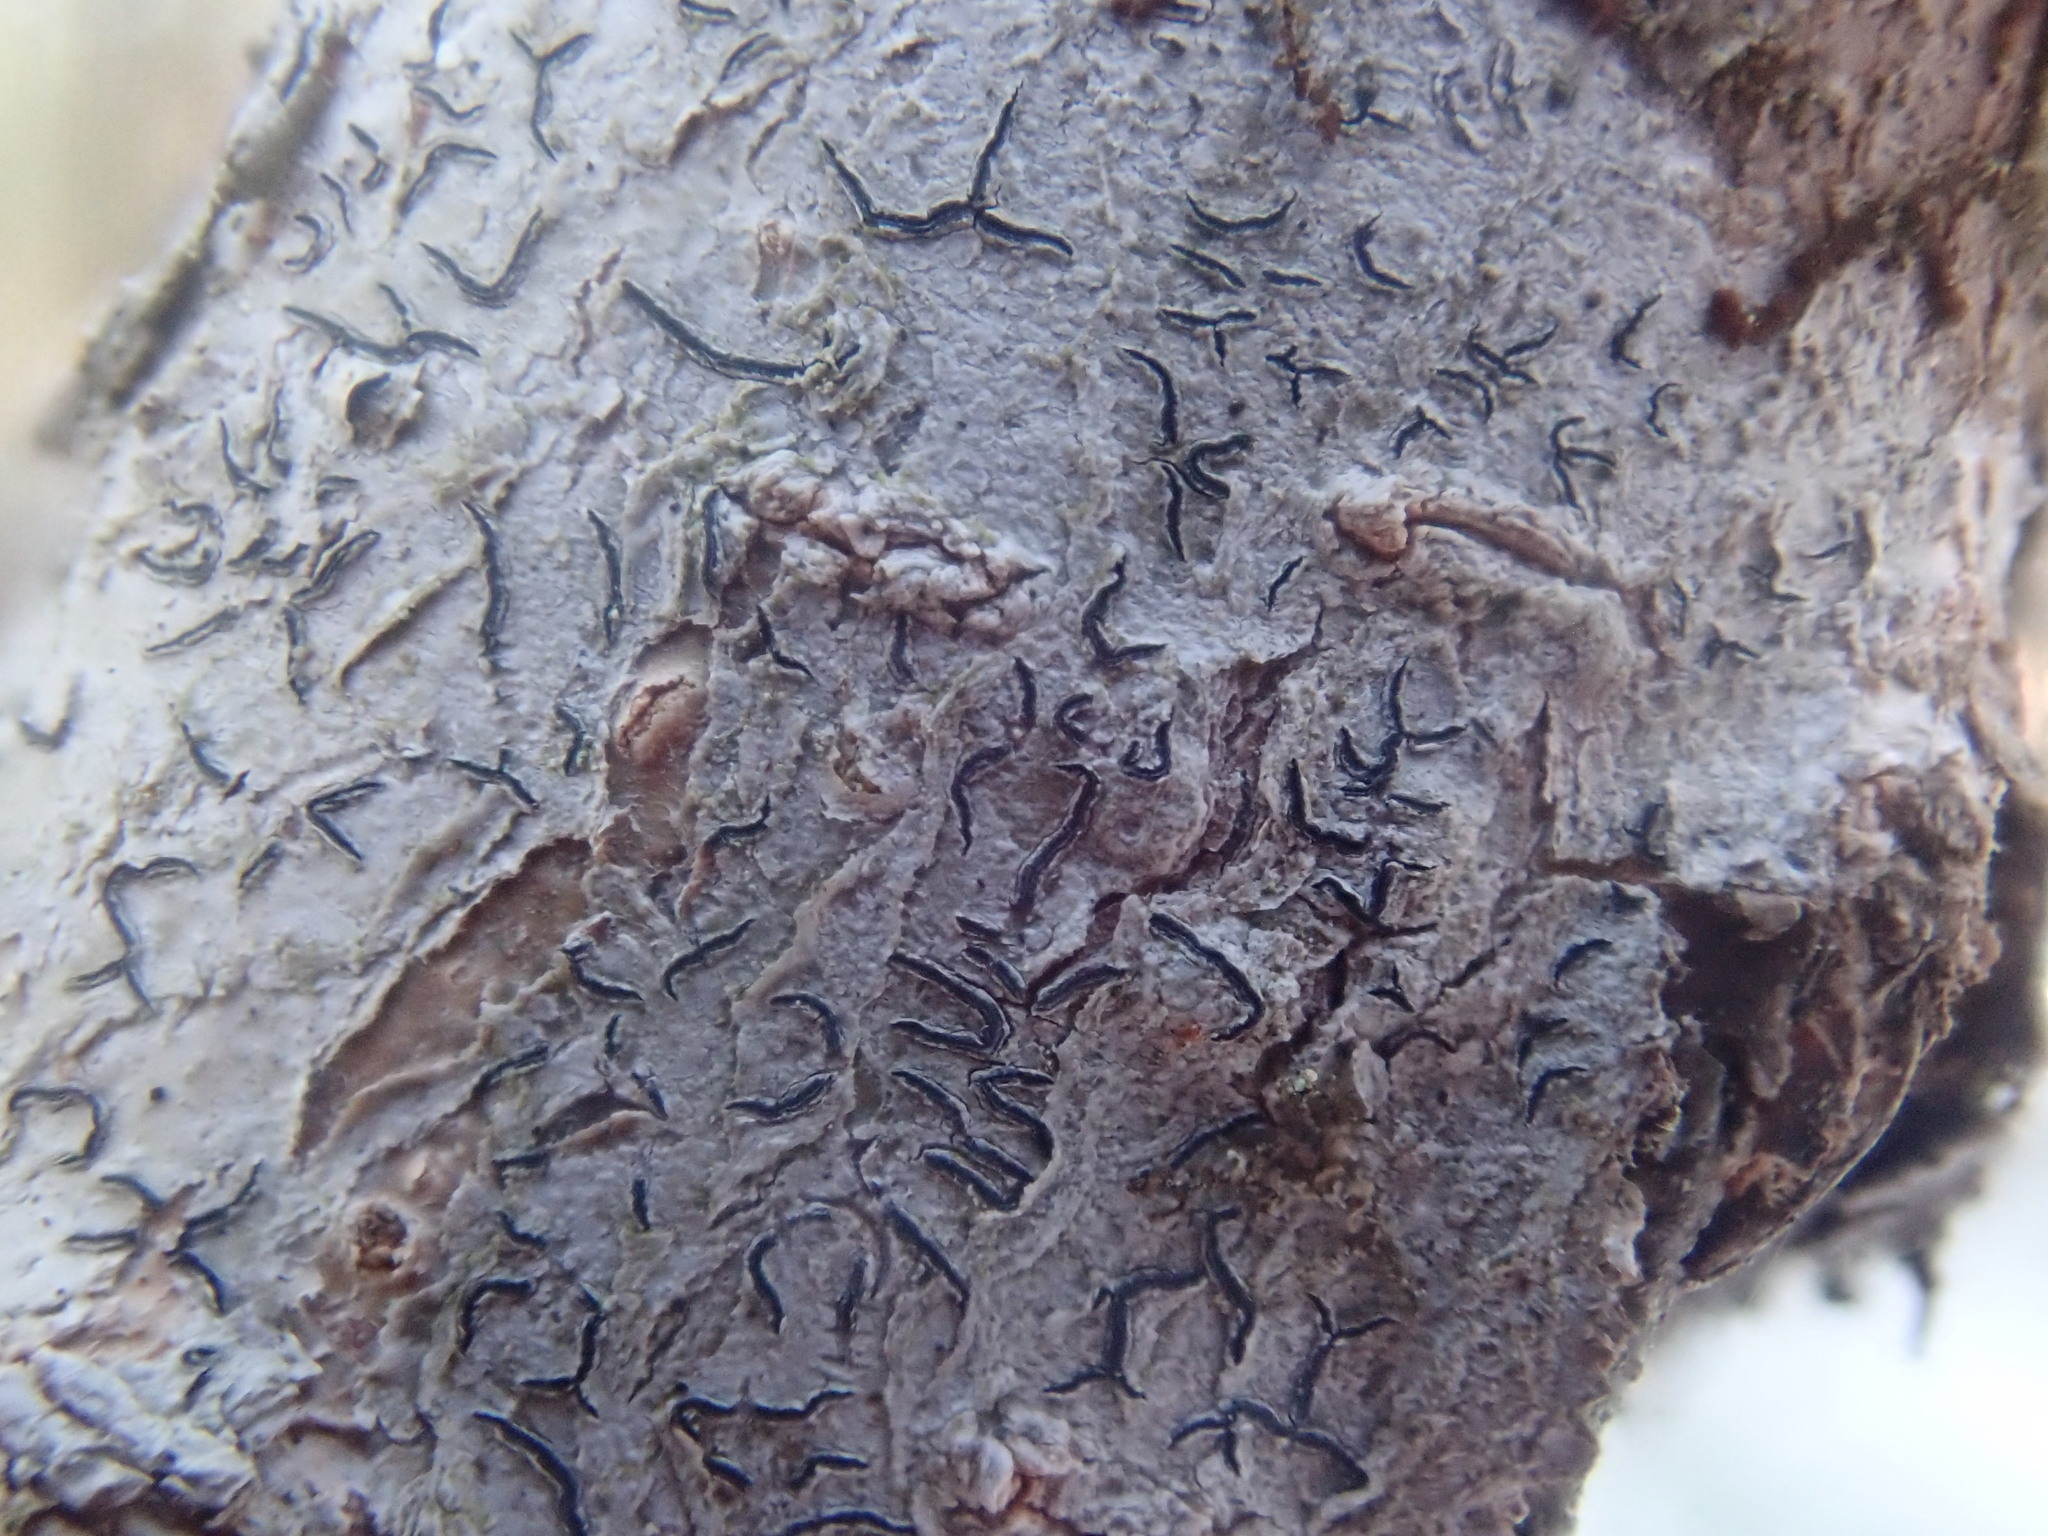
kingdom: Fungi
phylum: Ascomycota
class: Lecanoromycetes
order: Ostropales
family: Graphidaceae
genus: Graphis
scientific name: Graphis scripta
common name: Script lichen
